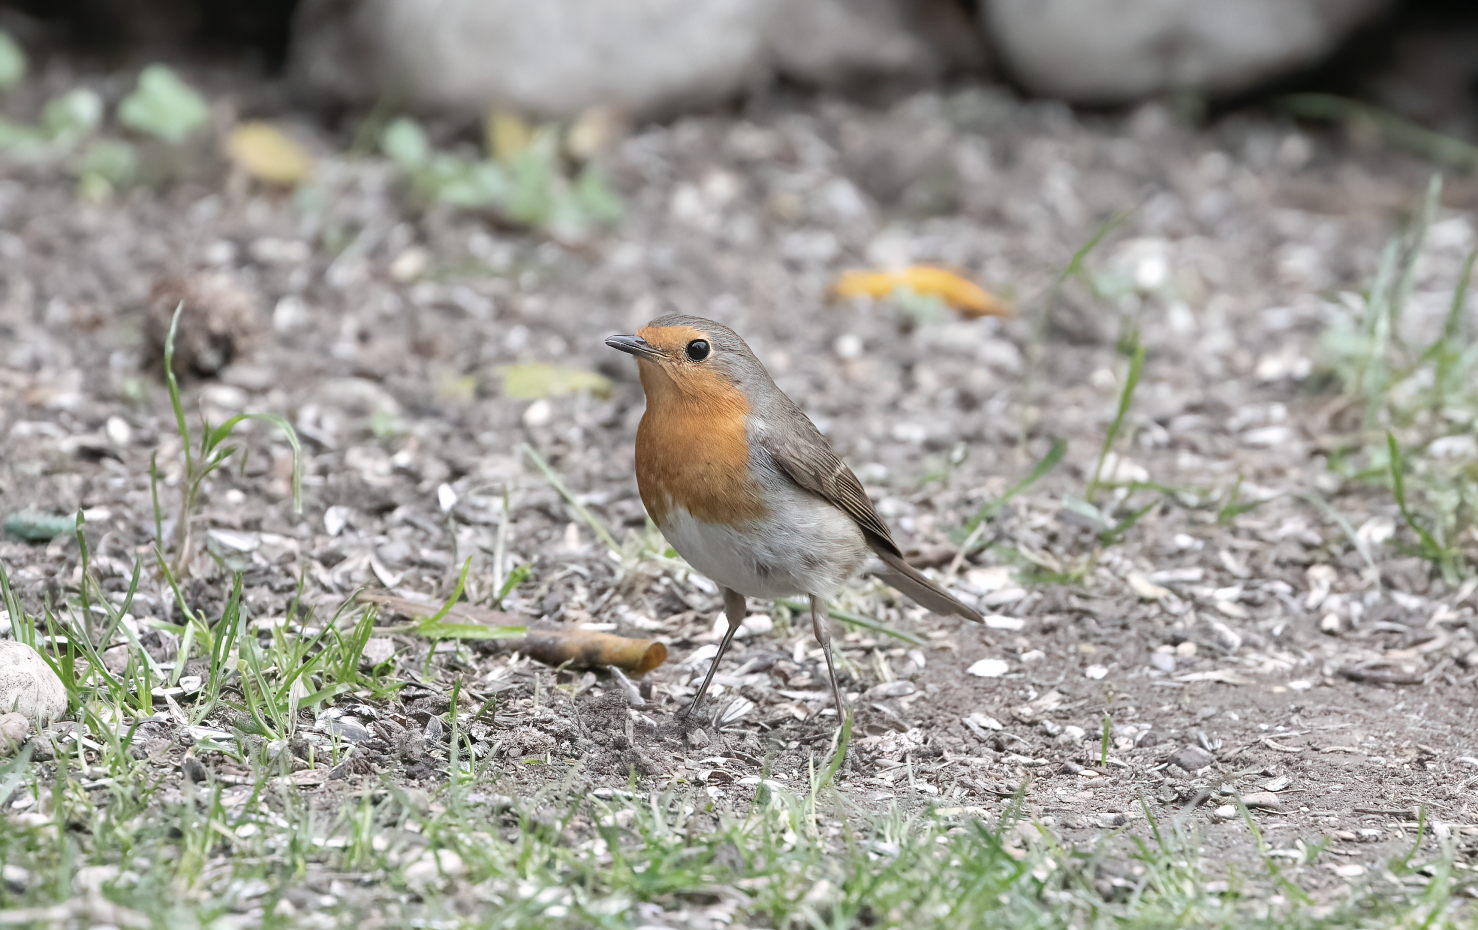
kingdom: Animalia
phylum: Chordata
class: Aves
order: Passeriformes
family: Muscicapidae
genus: Erithacus
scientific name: Erithacus rubecula
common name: European robin
